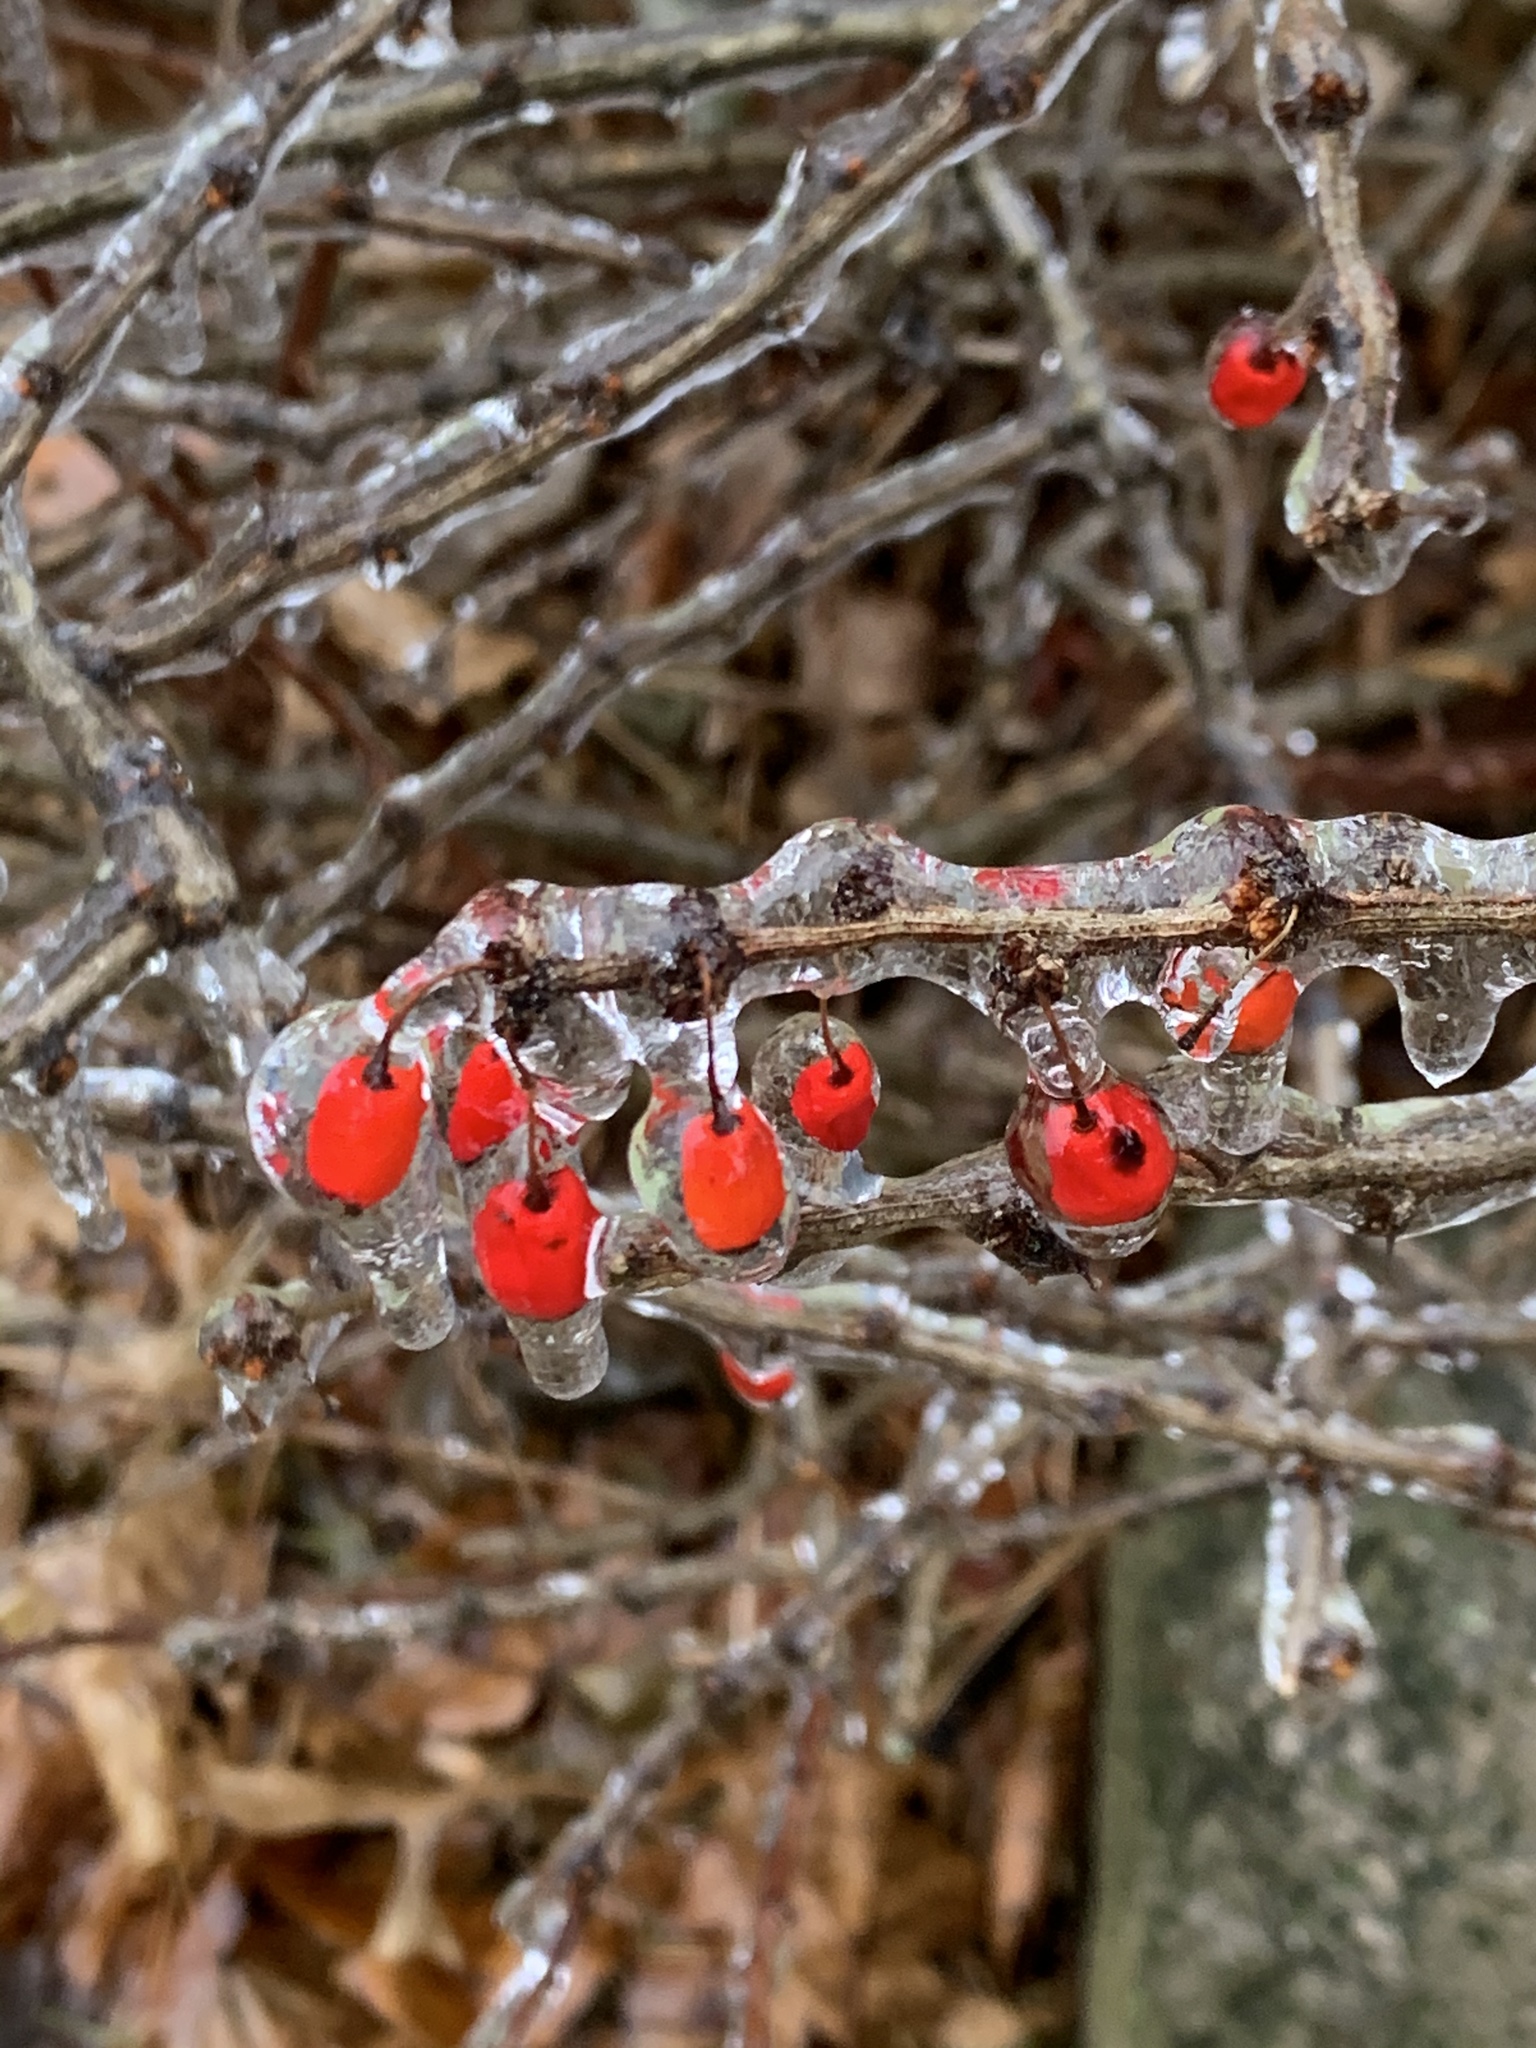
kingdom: Plantae
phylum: Tracheophyta
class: Magnoliopsida
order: Ranunculales
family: Berberidaceae
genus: Berberis
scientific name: Berberis thunbergii
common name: Japanese barberry
